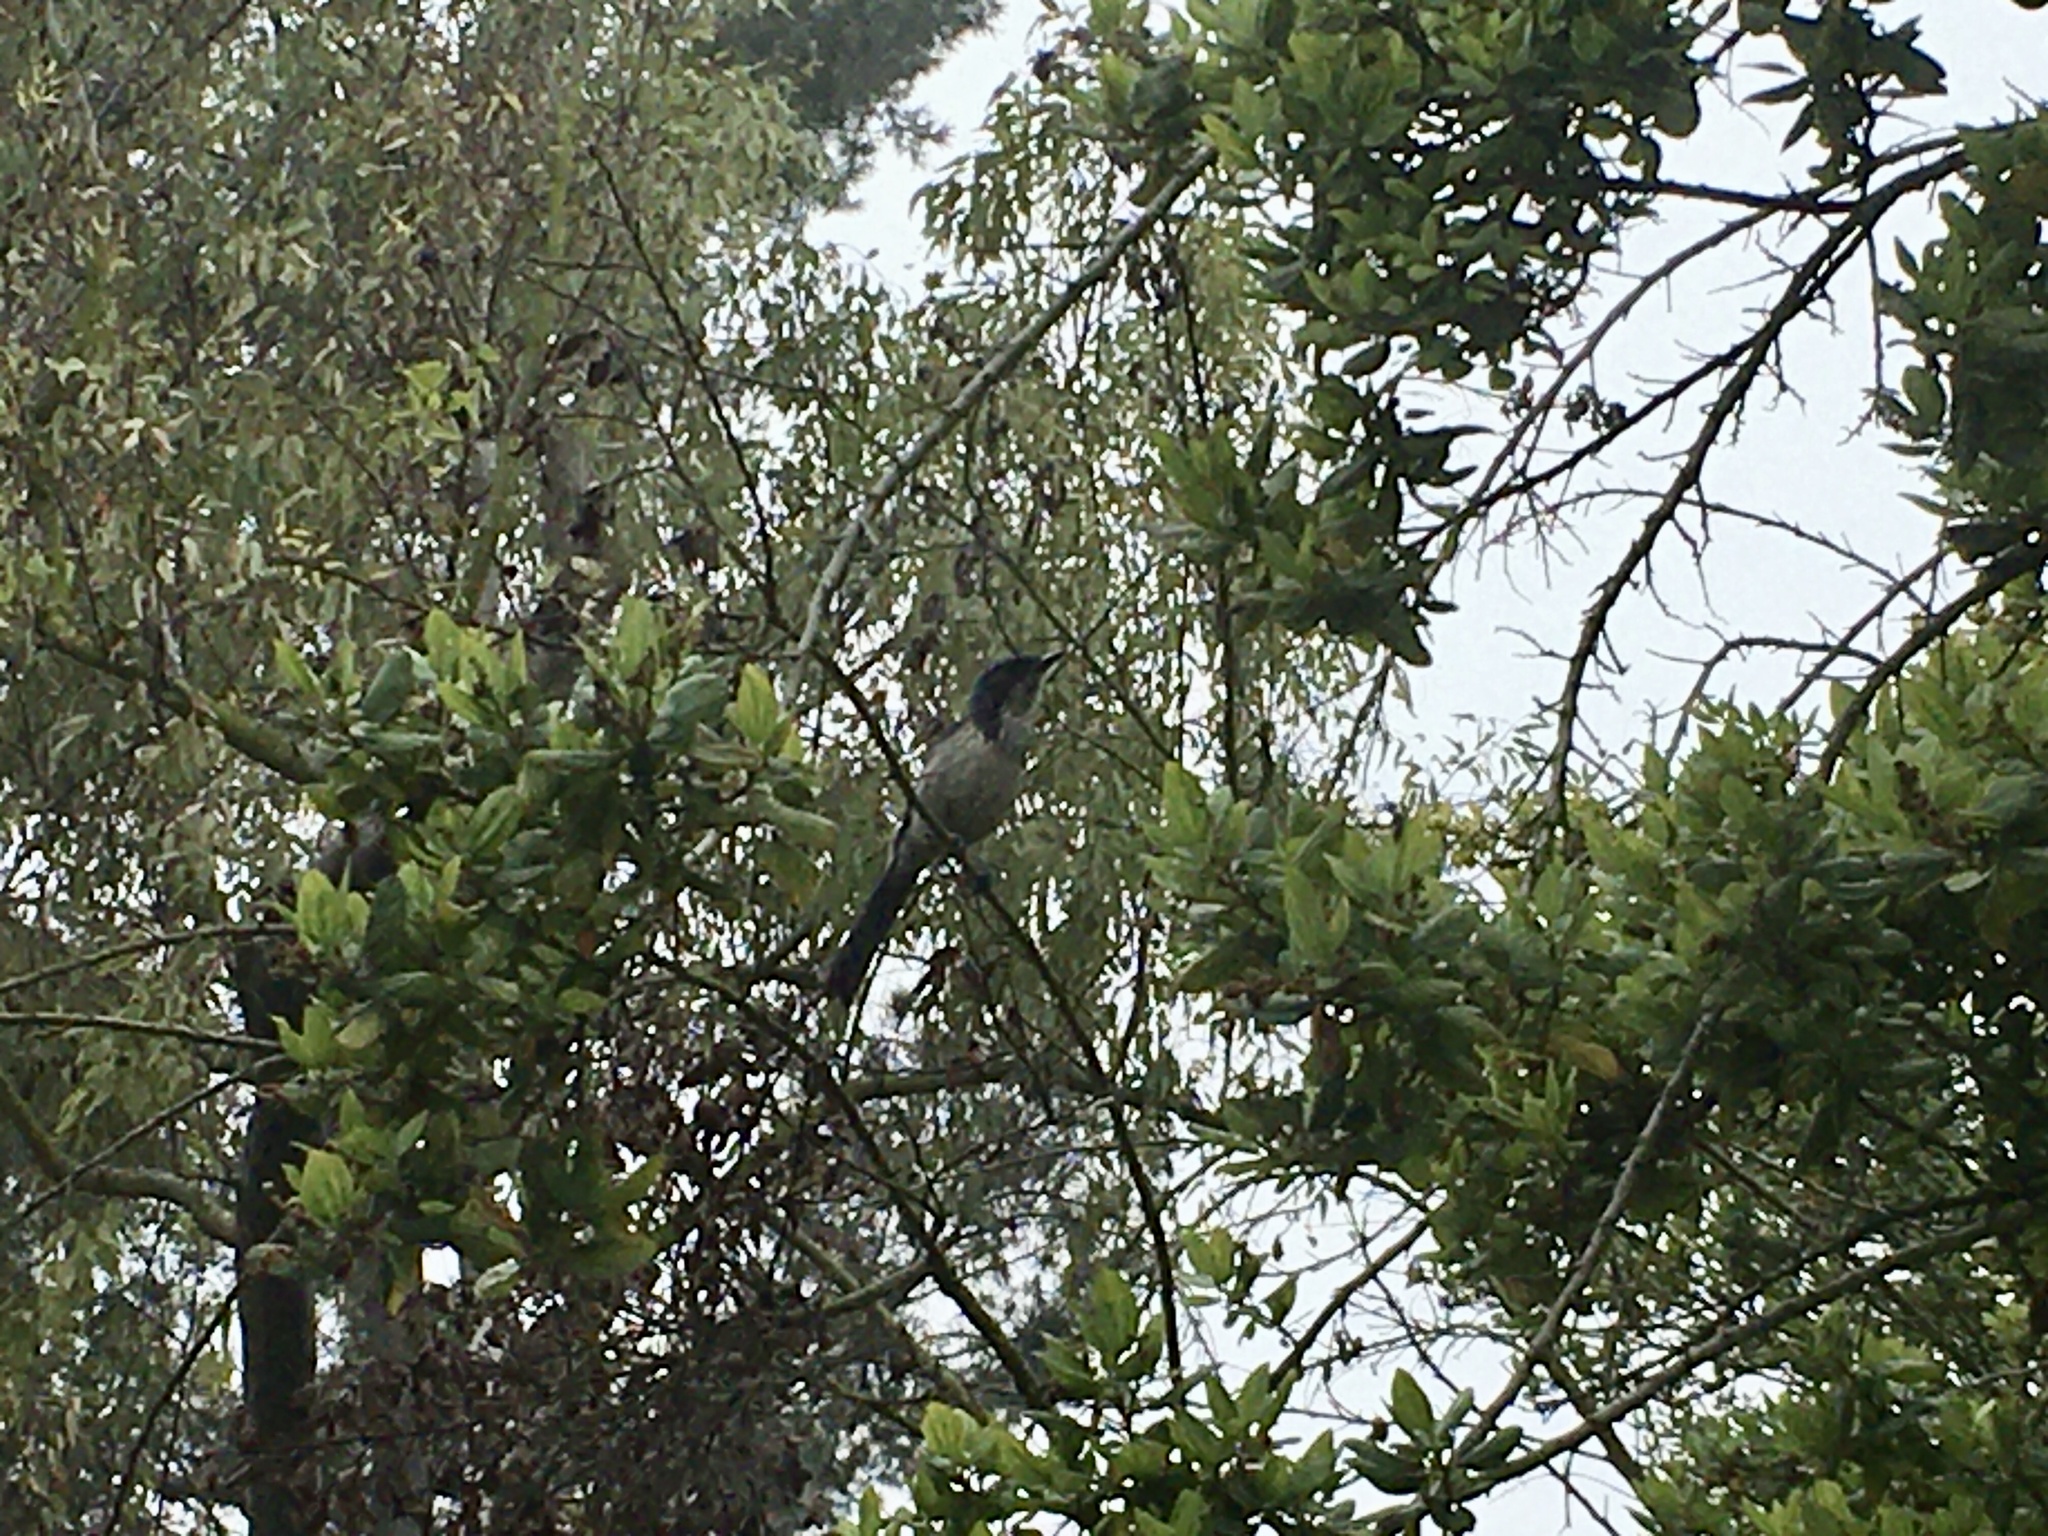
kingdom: Animalia
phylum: Chordata
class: Aves
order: Passeriformes
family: Corvidae
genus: Aphelocoma
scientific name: Aphelocoma californica
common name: California scrub-jay
